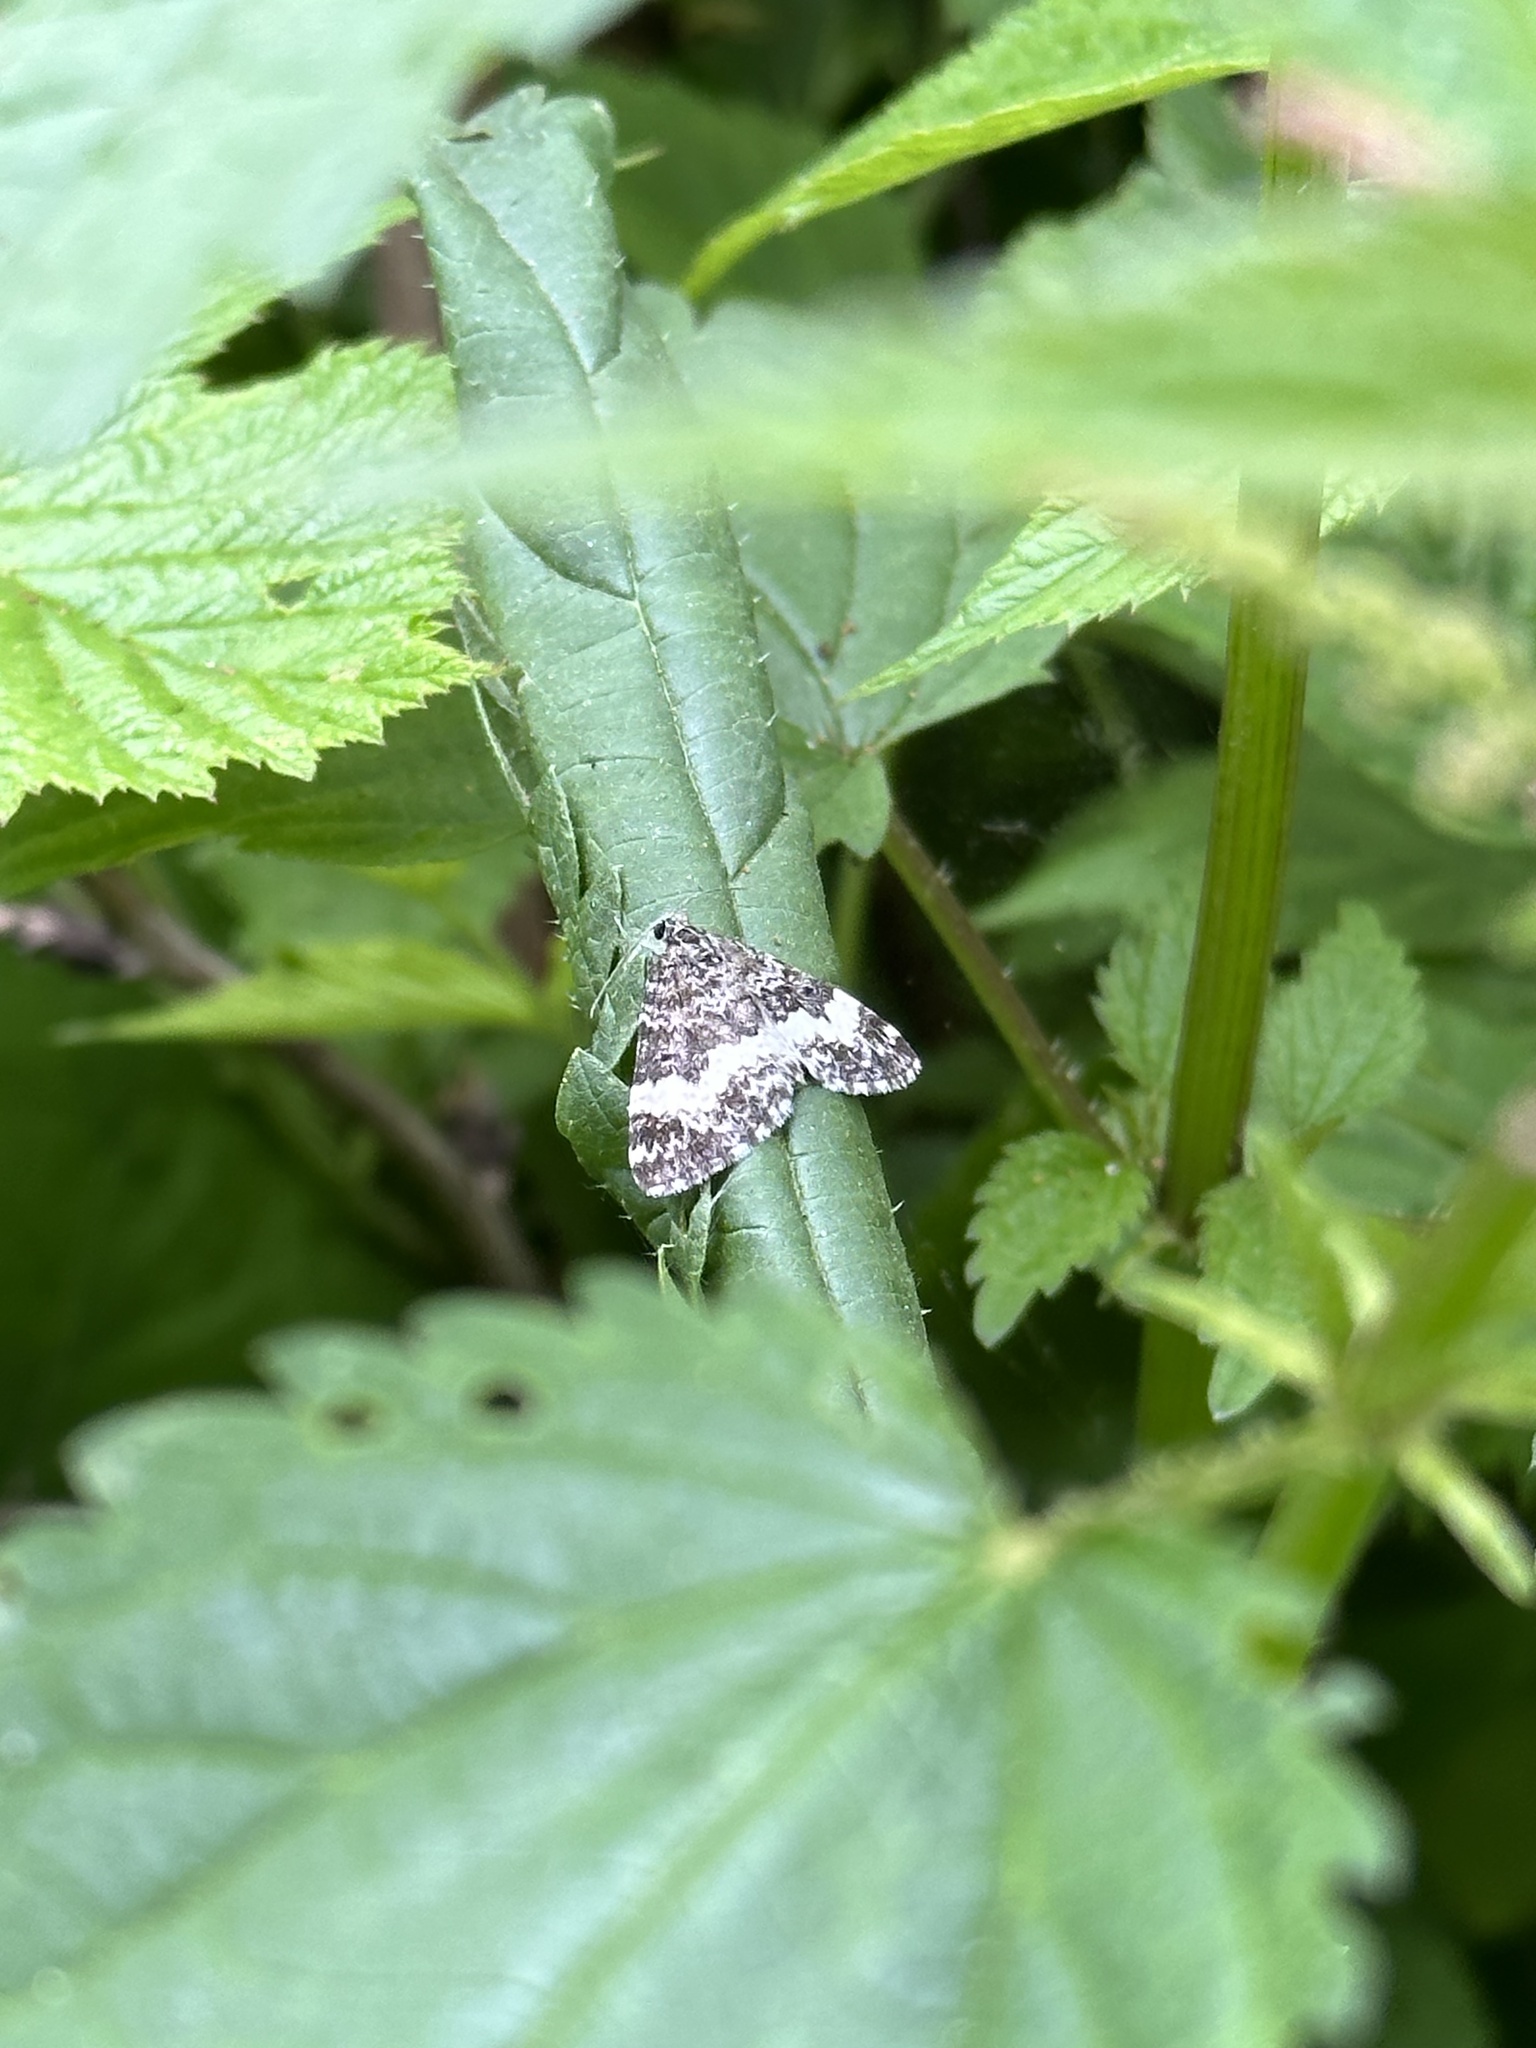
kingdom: Animalia
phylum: Arthropoda
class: Insecta
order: Lepidoptera
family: Geometridae
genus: Spargania
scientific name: Spargania luctuata
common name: White-banded carpet
